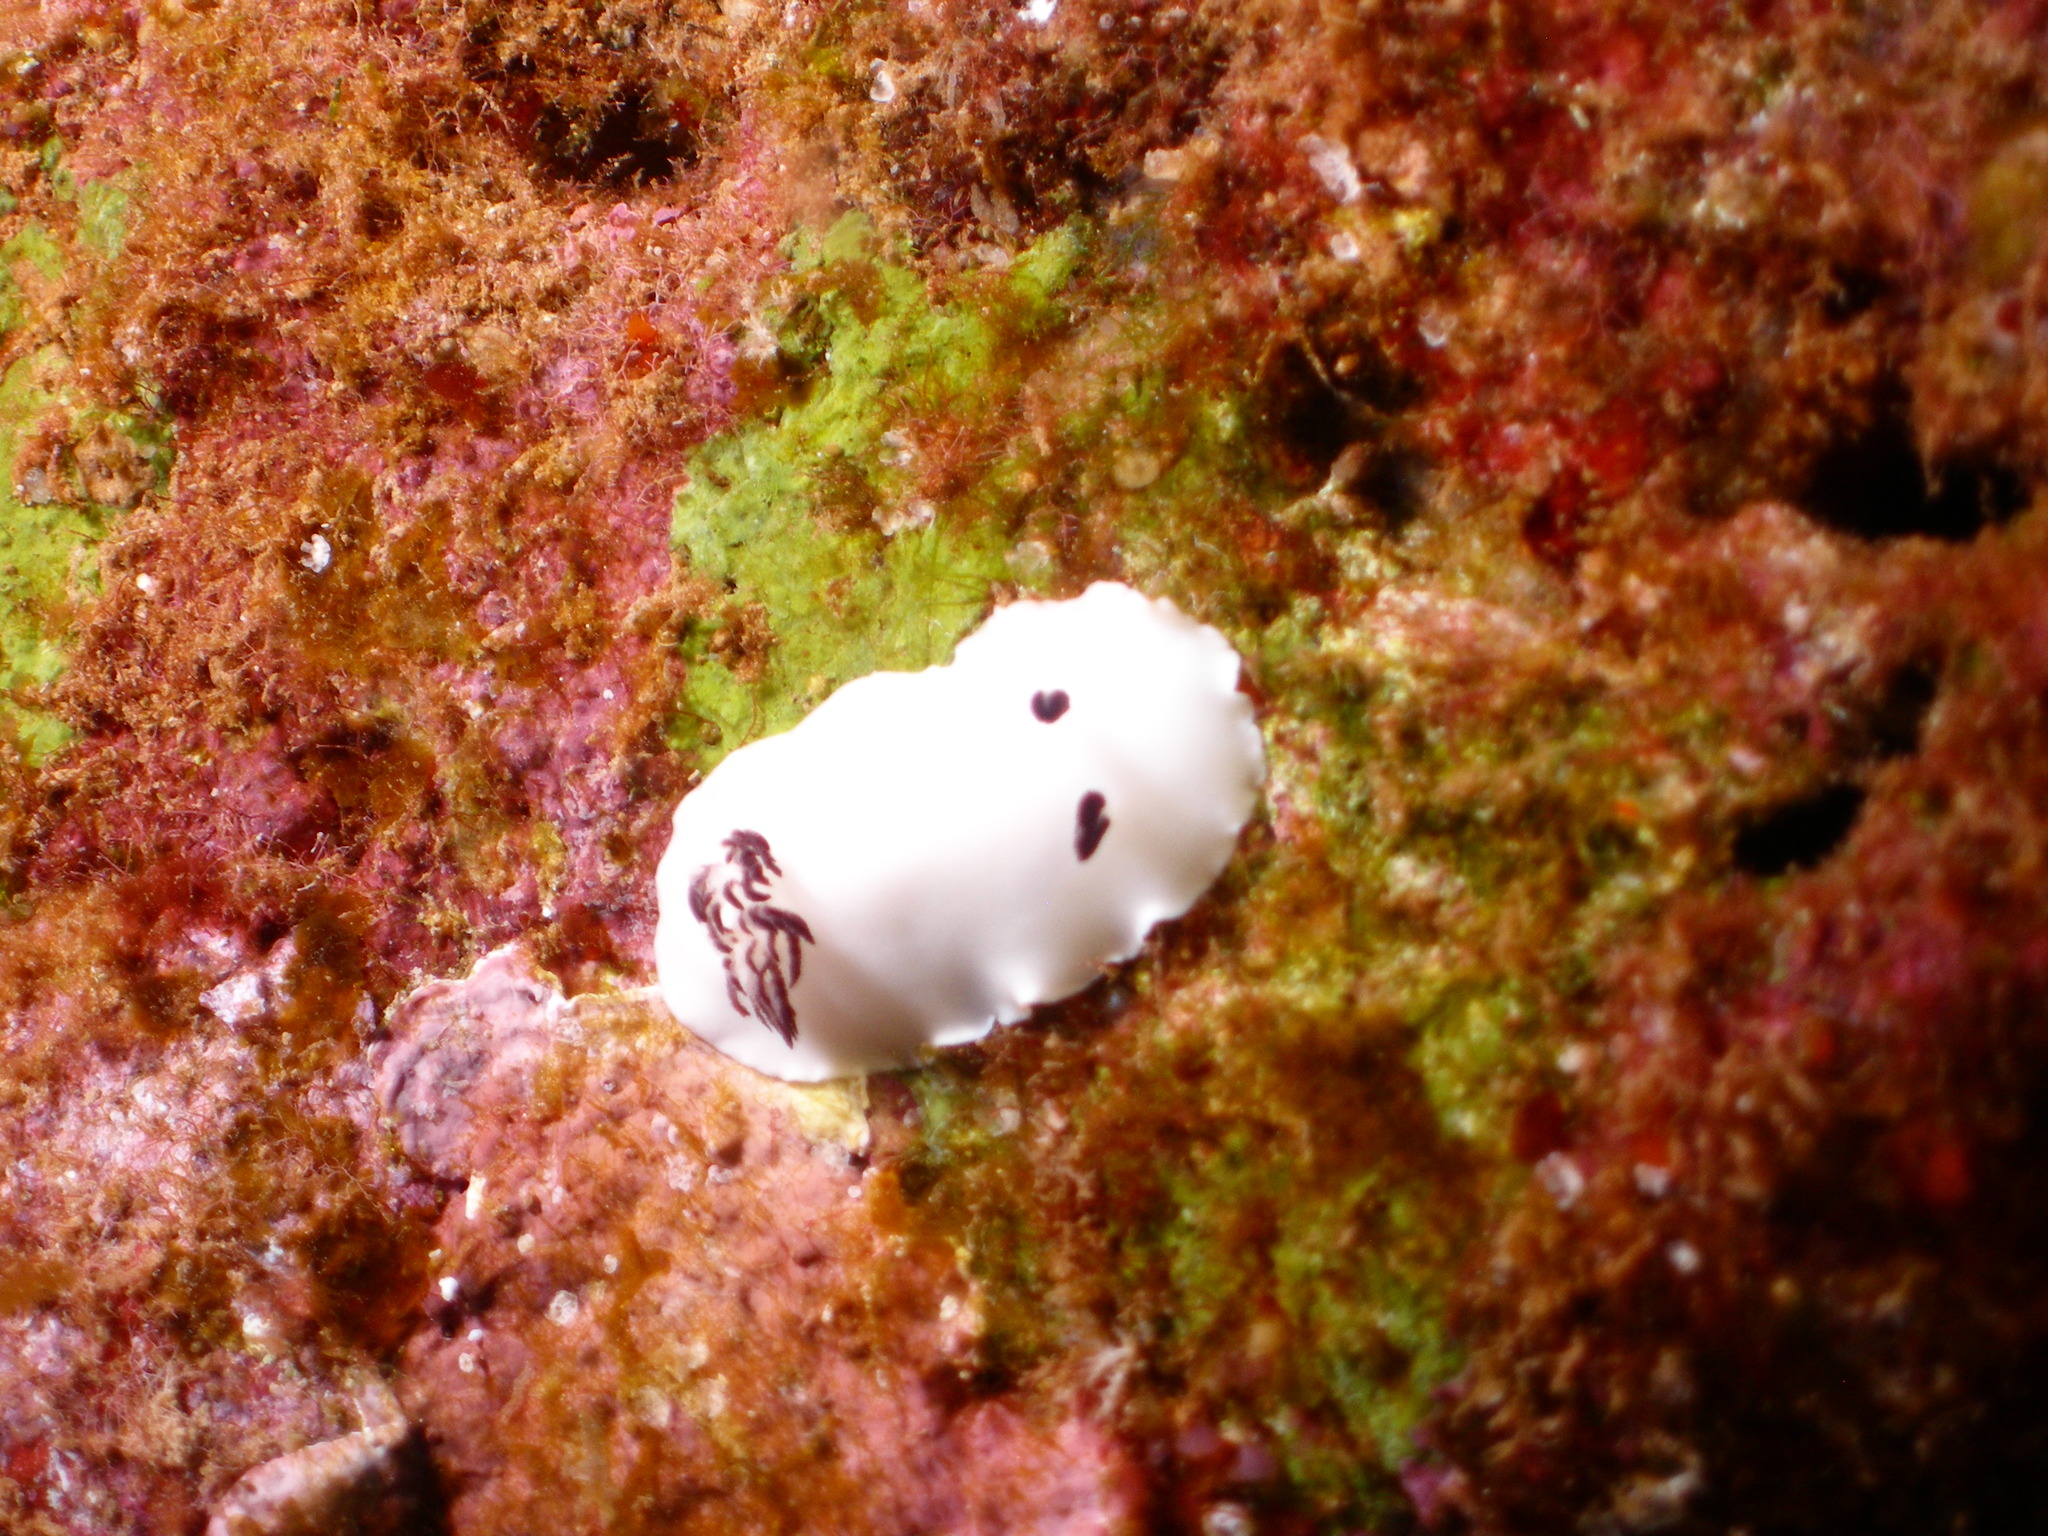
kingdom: Animalia
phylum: Mollusca
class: Gastropoda
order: Nudibranchia
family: Discodorididae
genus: Hiatodoris
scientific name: Hiatodoris fellowsi
